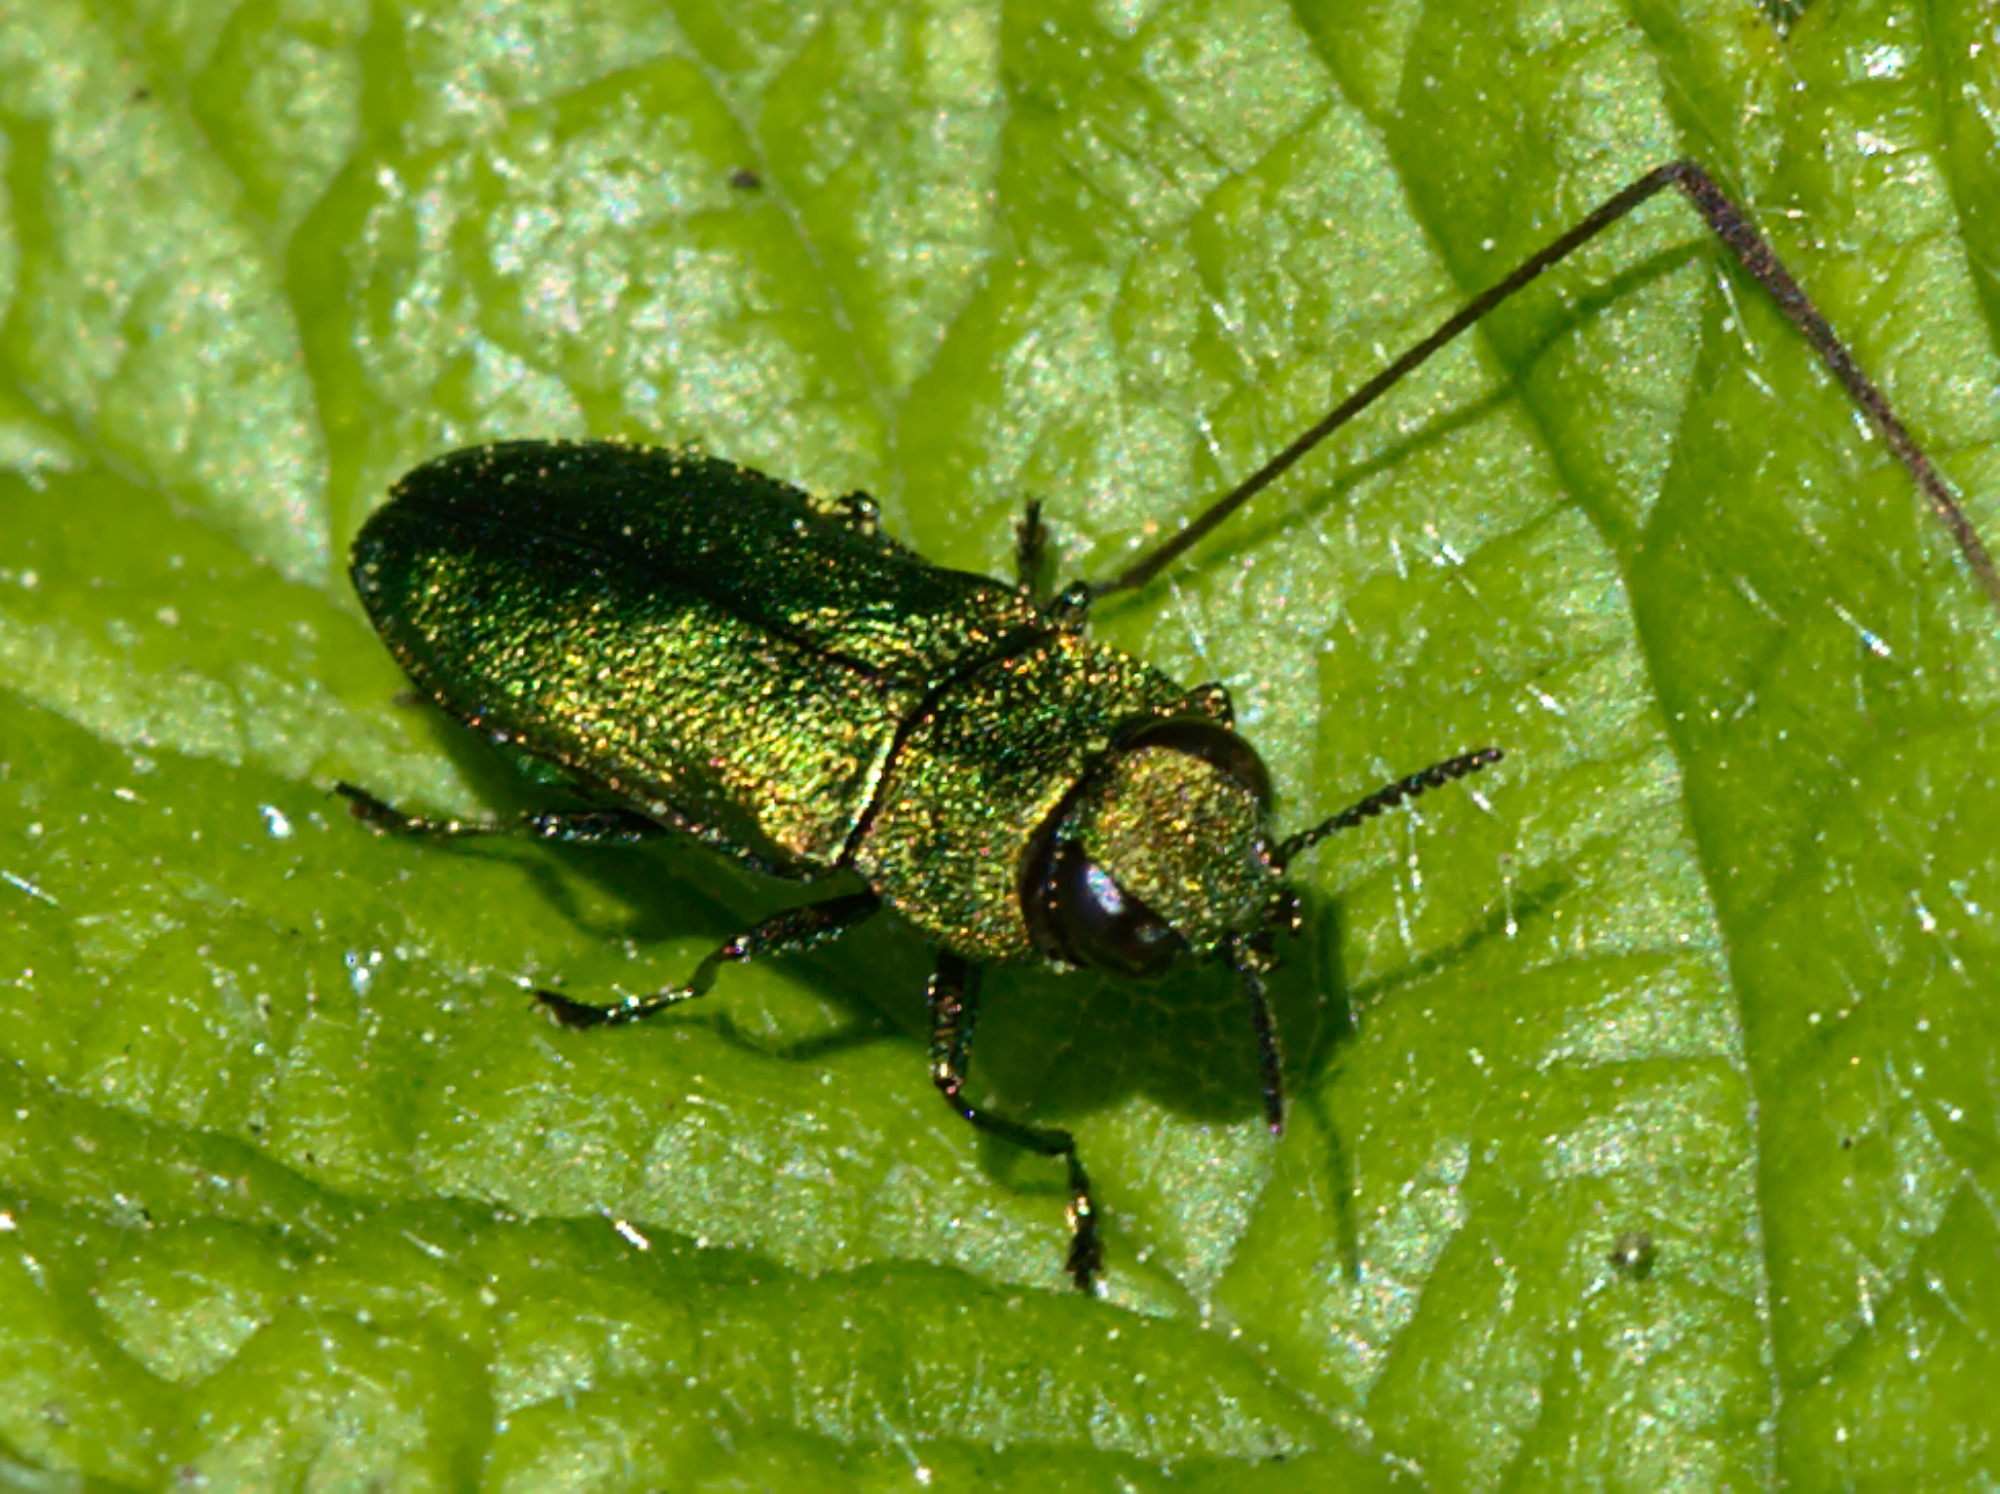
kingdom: Animalia
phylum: Arthropoda
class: Insecta
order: Coleoptera
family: Buprestidae
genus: Anthaxia
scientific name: Anthaxia nitidula
